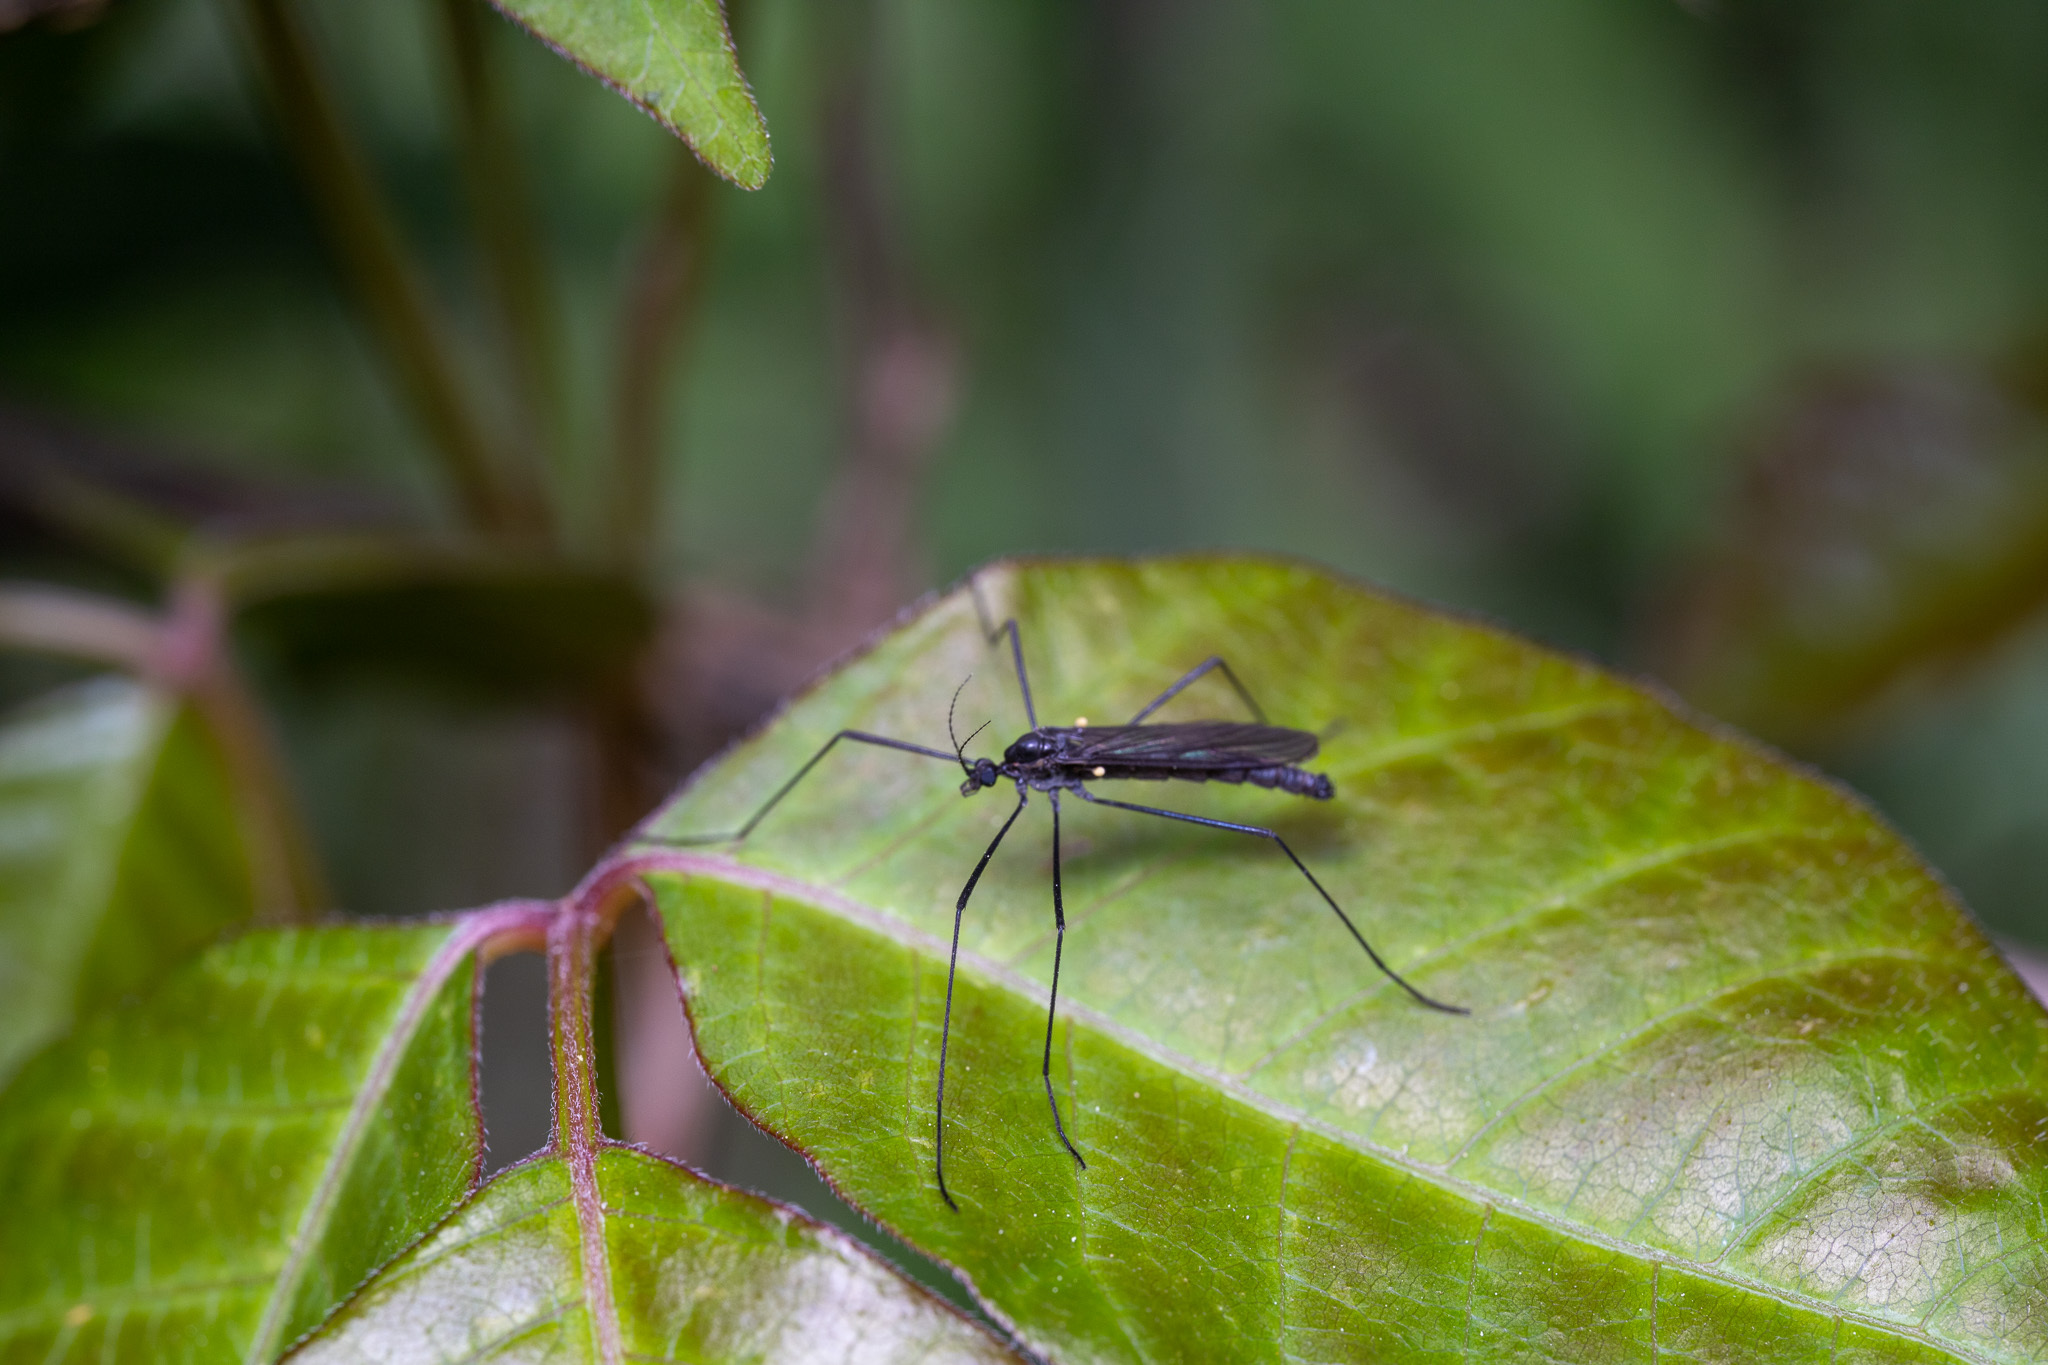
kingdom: Animalia
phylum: Arthropoda
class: Insecta
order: Diptera
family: Limoniidae
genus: Gnophomyia
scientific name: Gnophomyia tristissima
